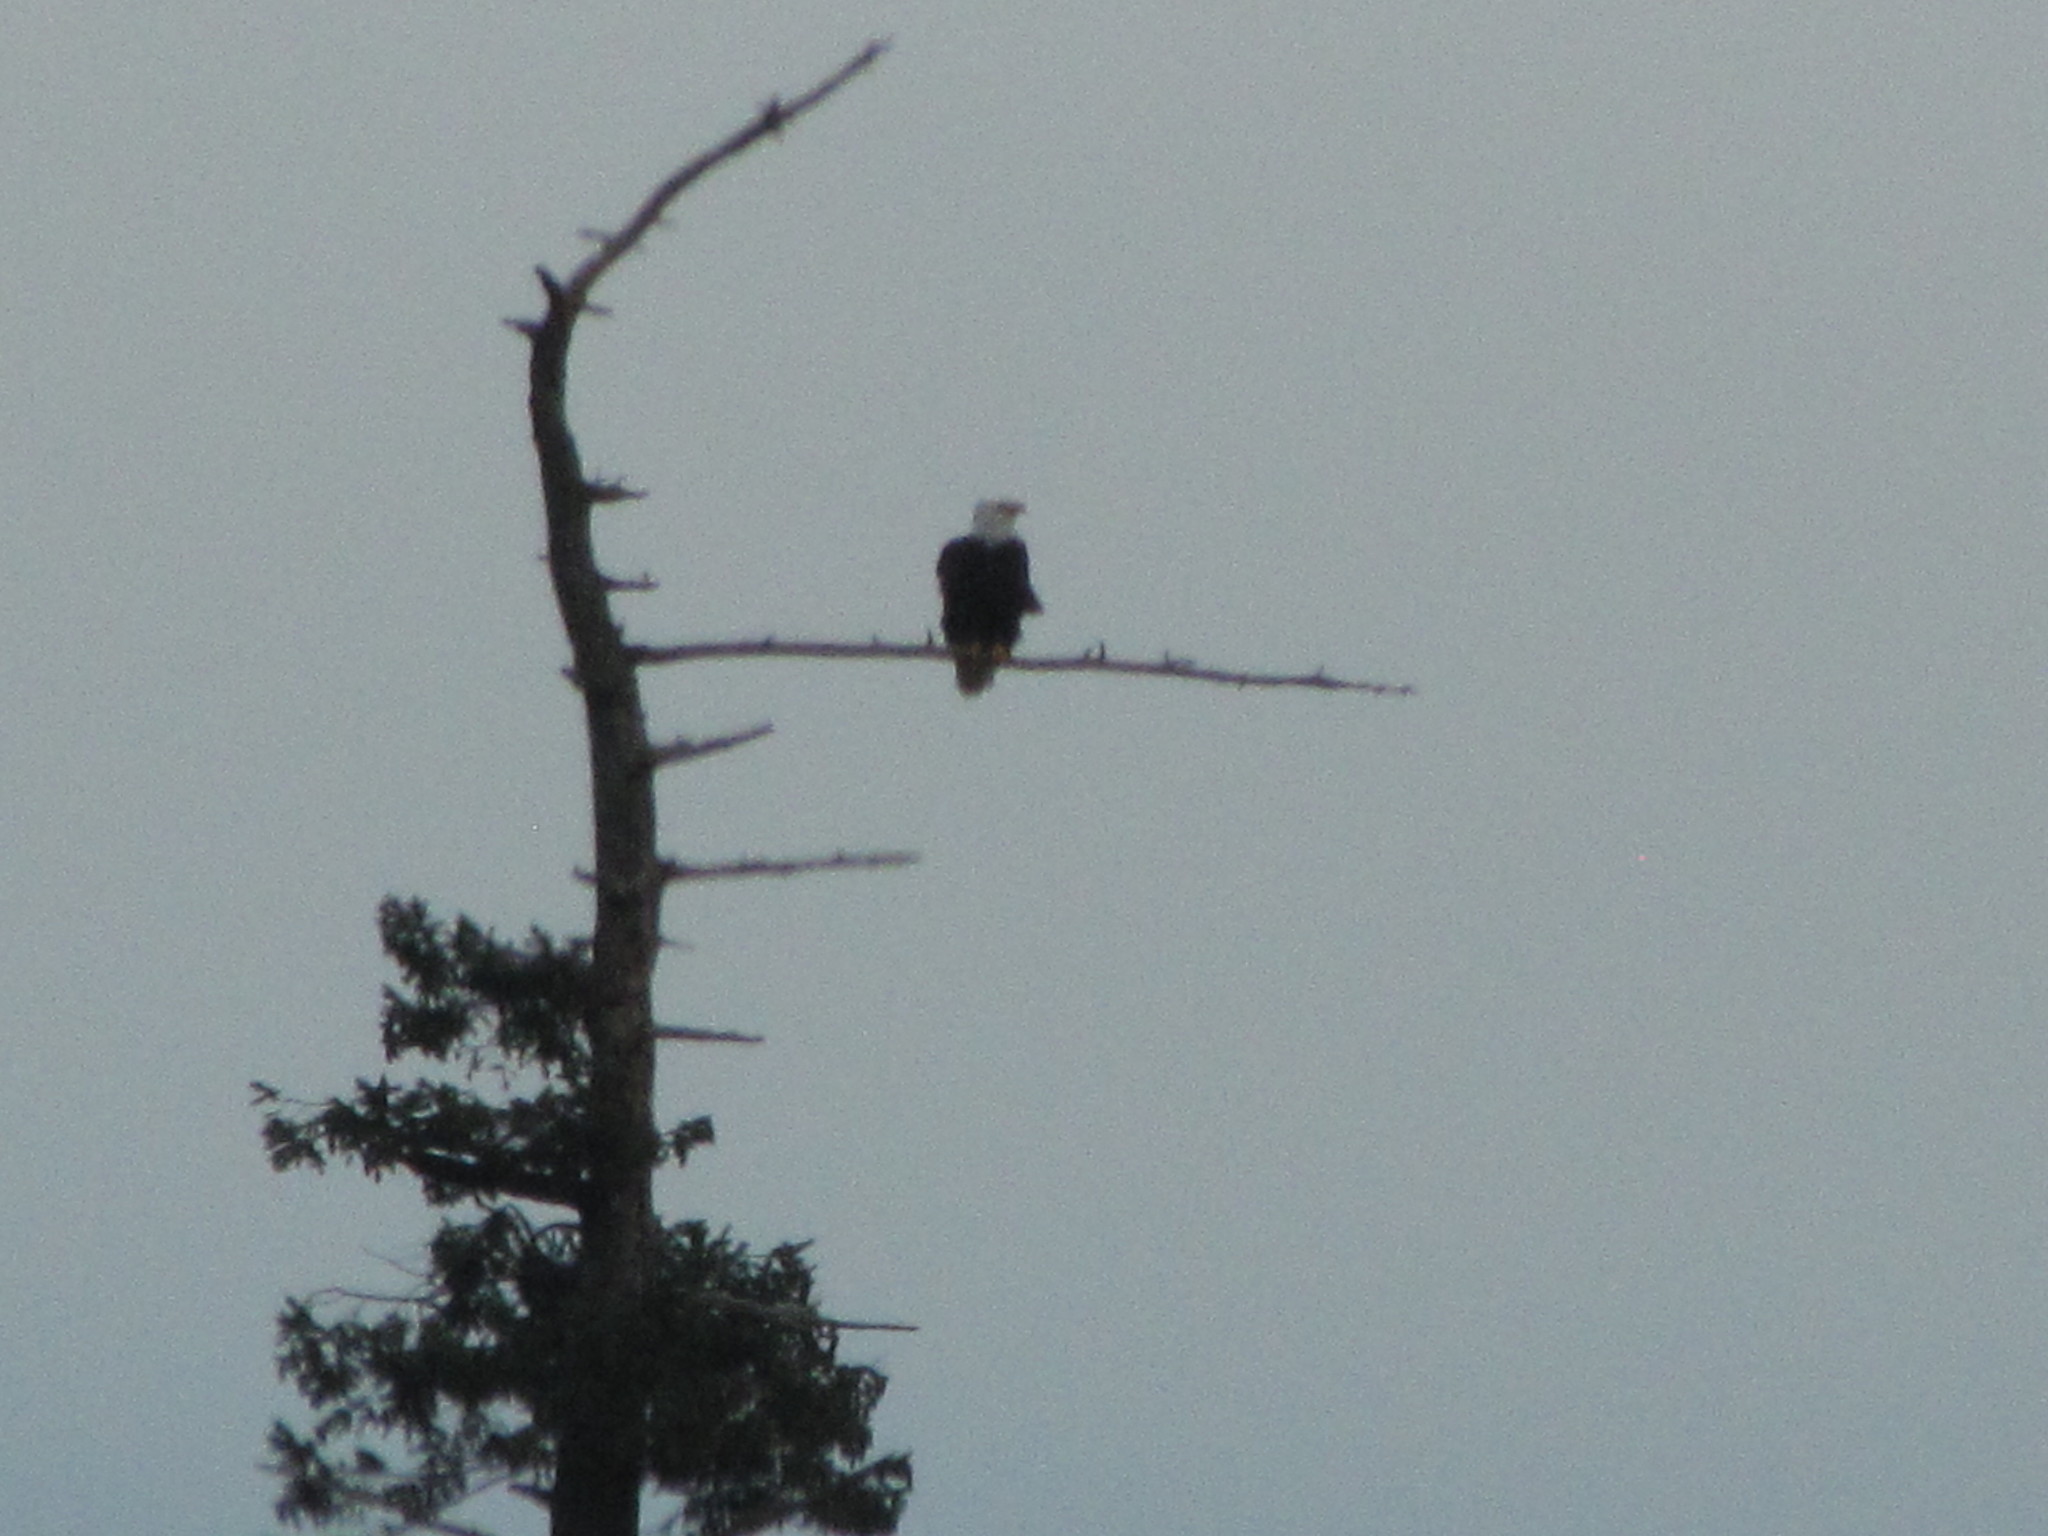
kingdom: Animalia
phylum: Chordata
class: Aves
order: Accipitriformes
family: Accipitridae
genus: Haliaeetus
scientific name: Haliaeetus leucocephalus
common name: Bald eagle
